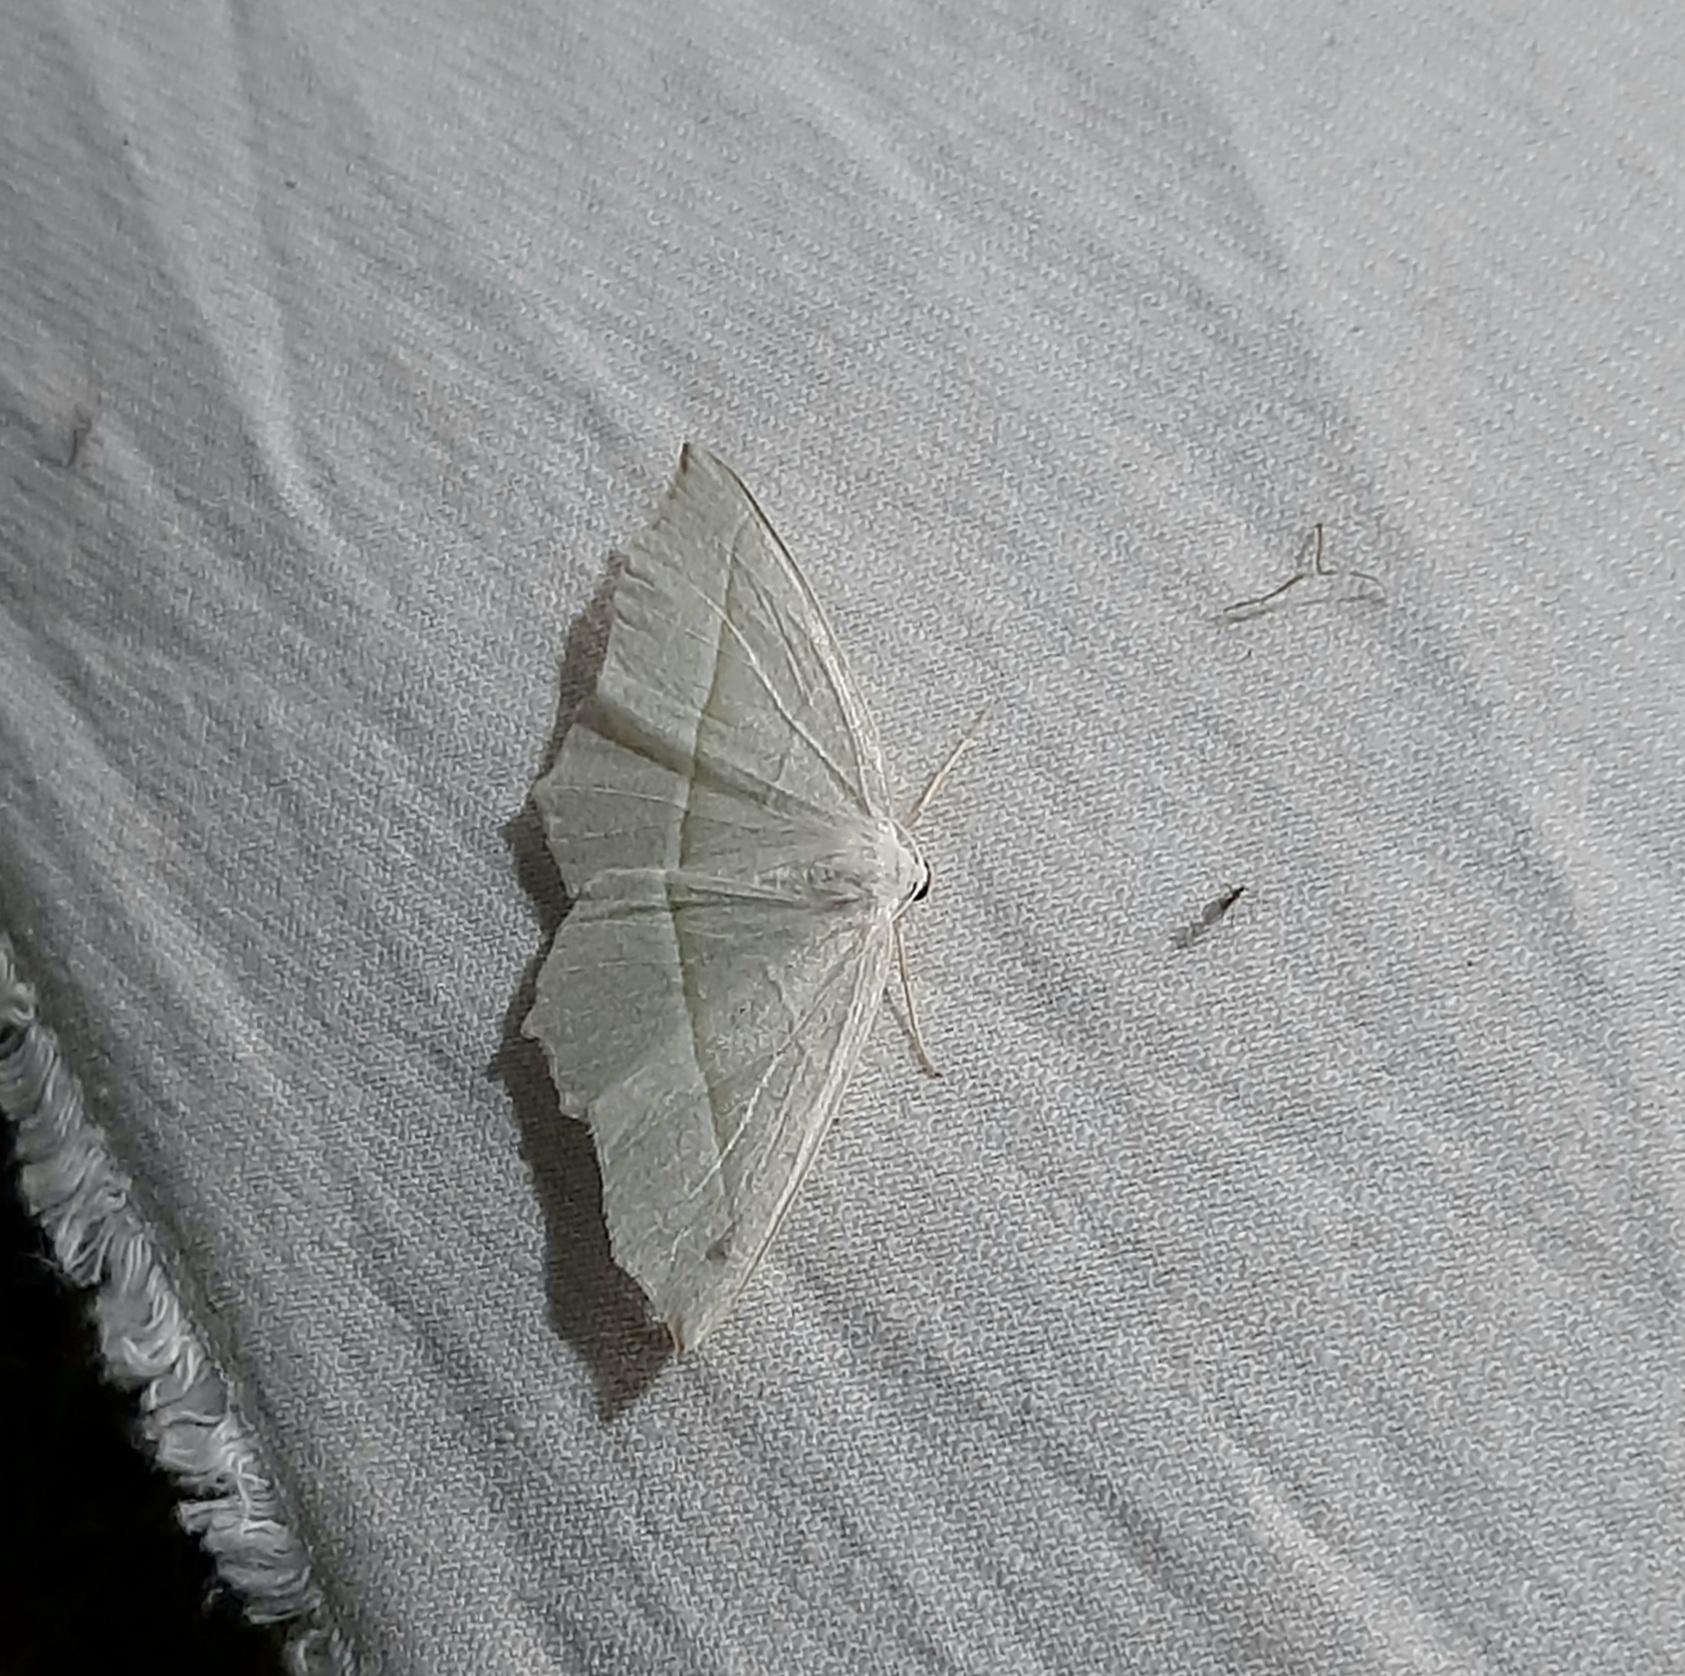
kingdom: Animalia
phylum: Arthropoda
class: Insecta
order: Lepidoptera
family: Geometridae
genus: Campaea
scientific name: Campaea margaritaria
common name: Light emerald
